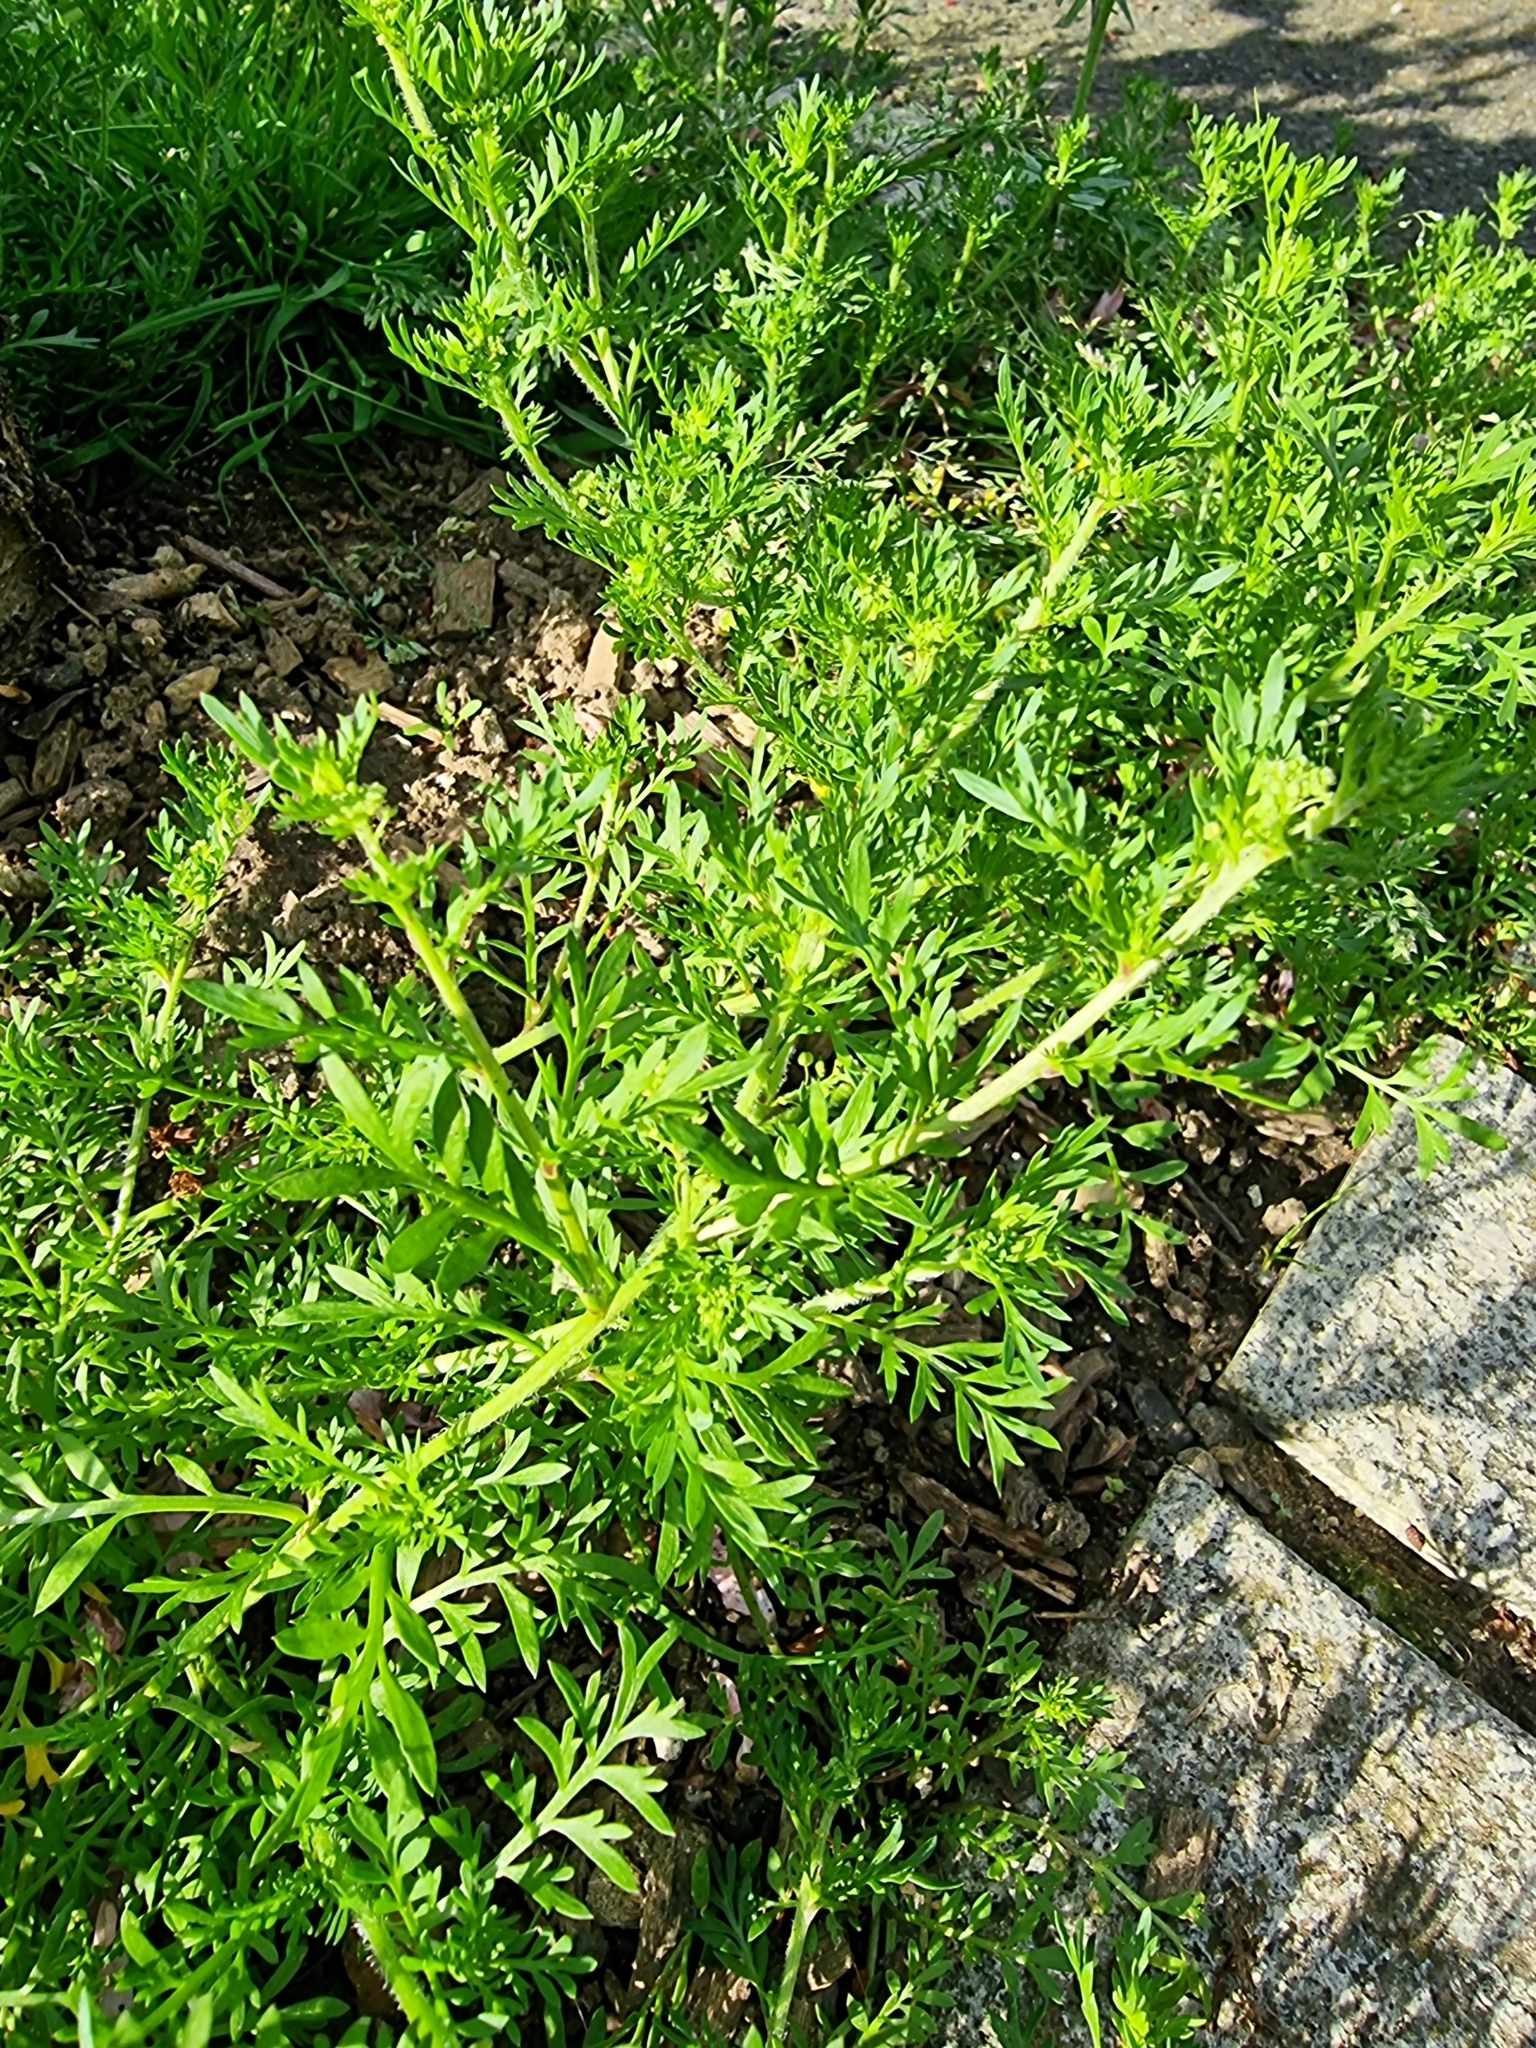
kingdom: Plantae
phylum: Tracheophyta
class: Magnoliopsida
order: Brassicales
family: Brassicaceae
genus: Lepidium
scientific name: Lepidium didymum
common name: Lesser swinecress
